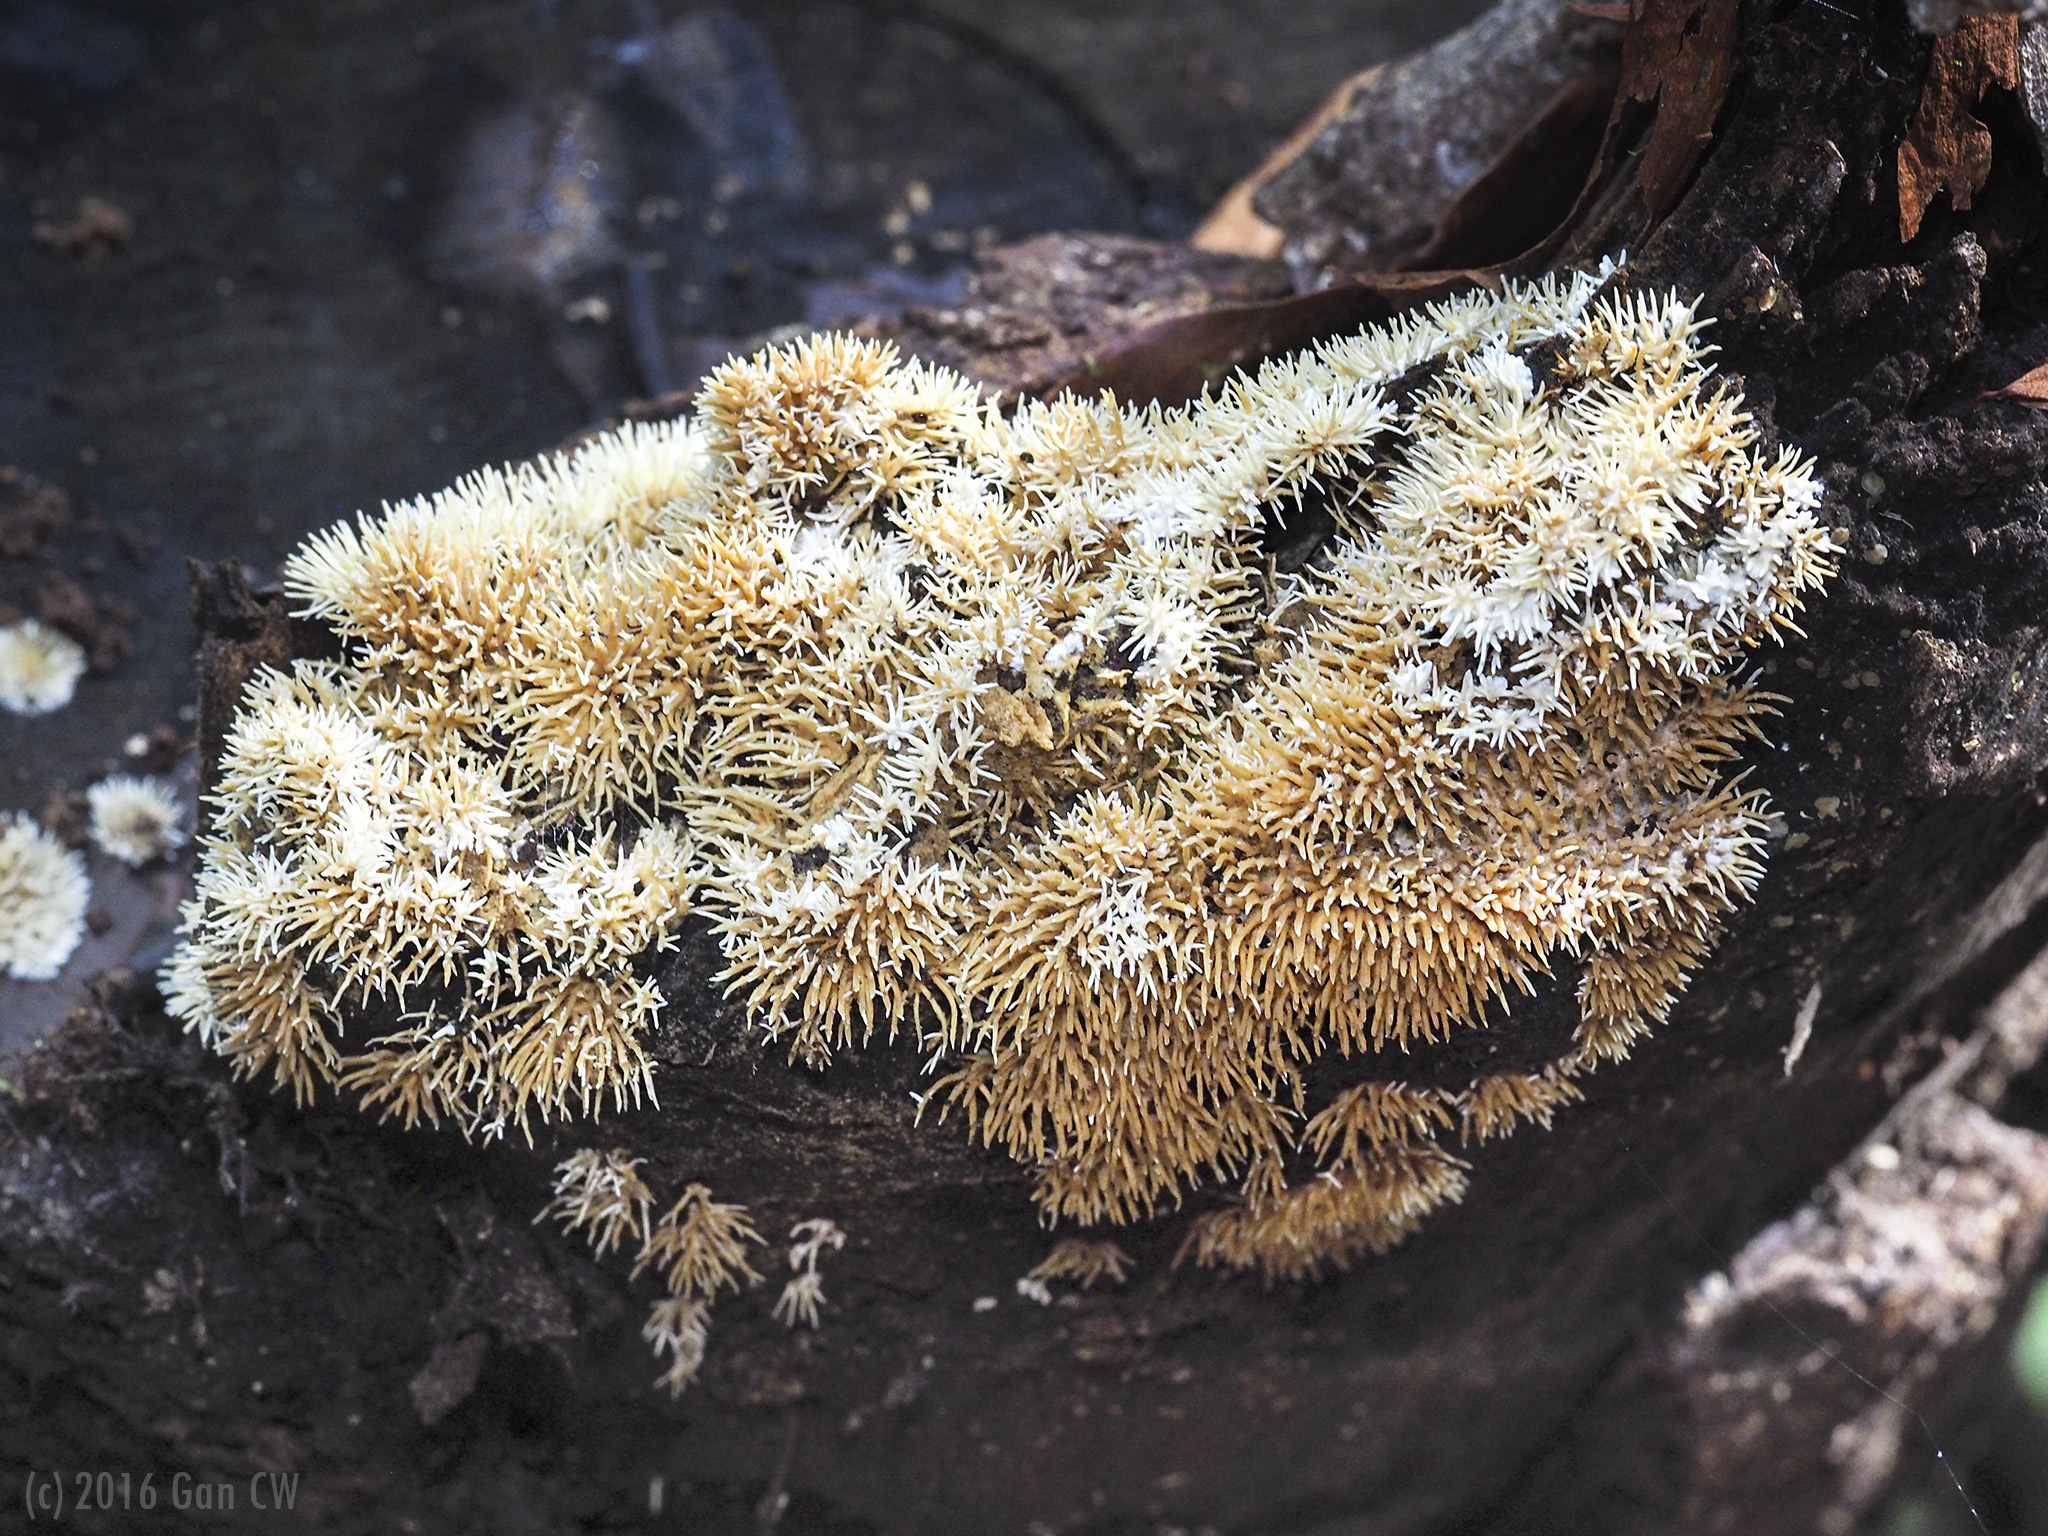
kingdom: Fungi
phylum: Basidiomycota
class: Agaricomycetes
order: Auriculariales
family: Auriculariaceae
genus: Elmerina
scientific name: Elmerina sclerodontia
